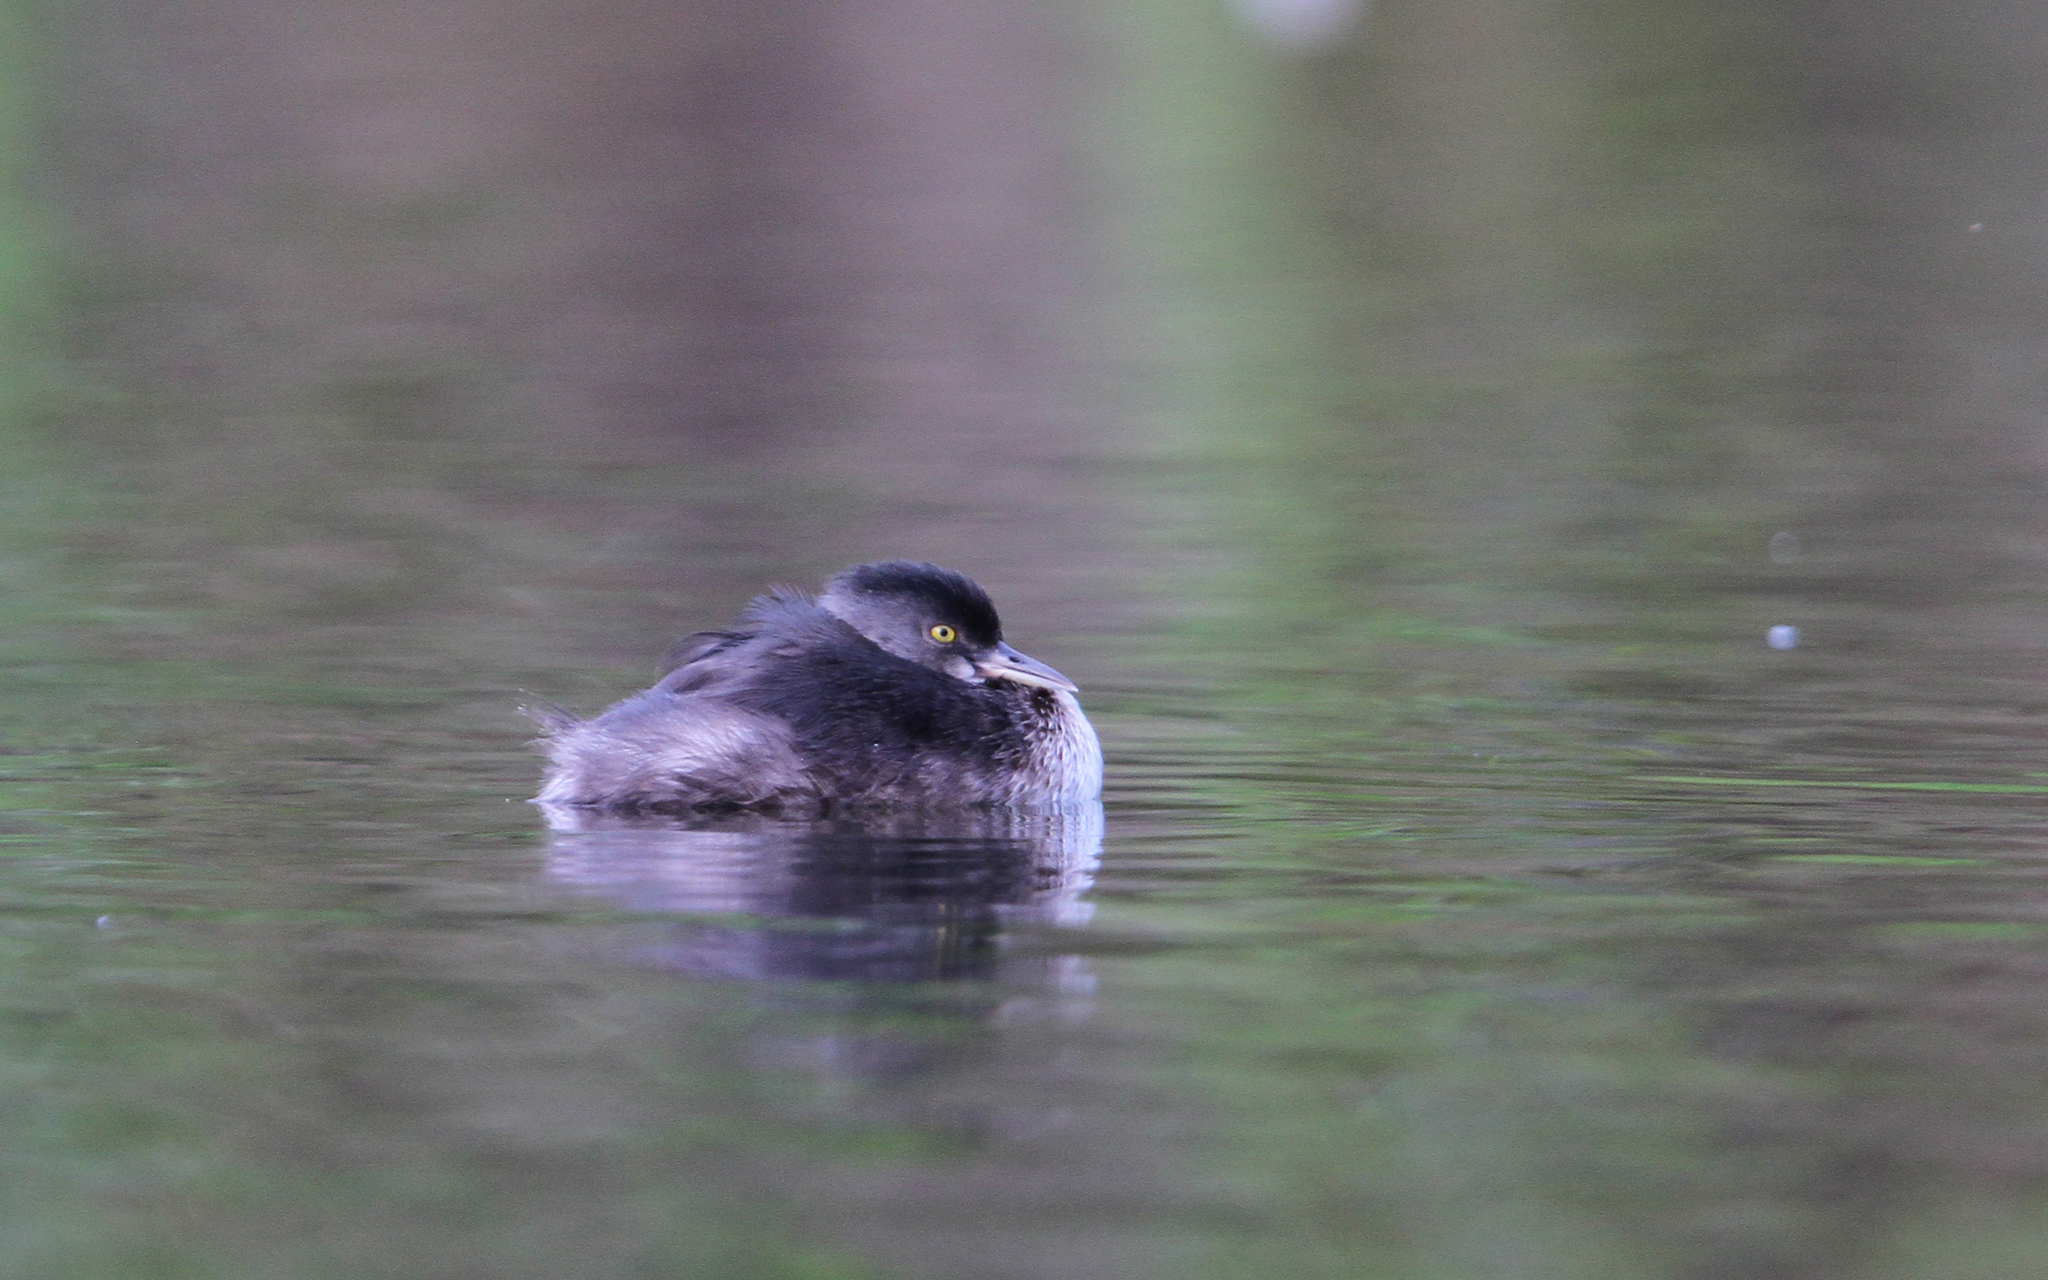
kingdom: Animalia
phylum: Chordata
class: Aves
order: Podicipediformes
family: Podicipedidae
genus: Tachybaptus
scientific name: Tachybaptus dominicus
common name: Least grebe
